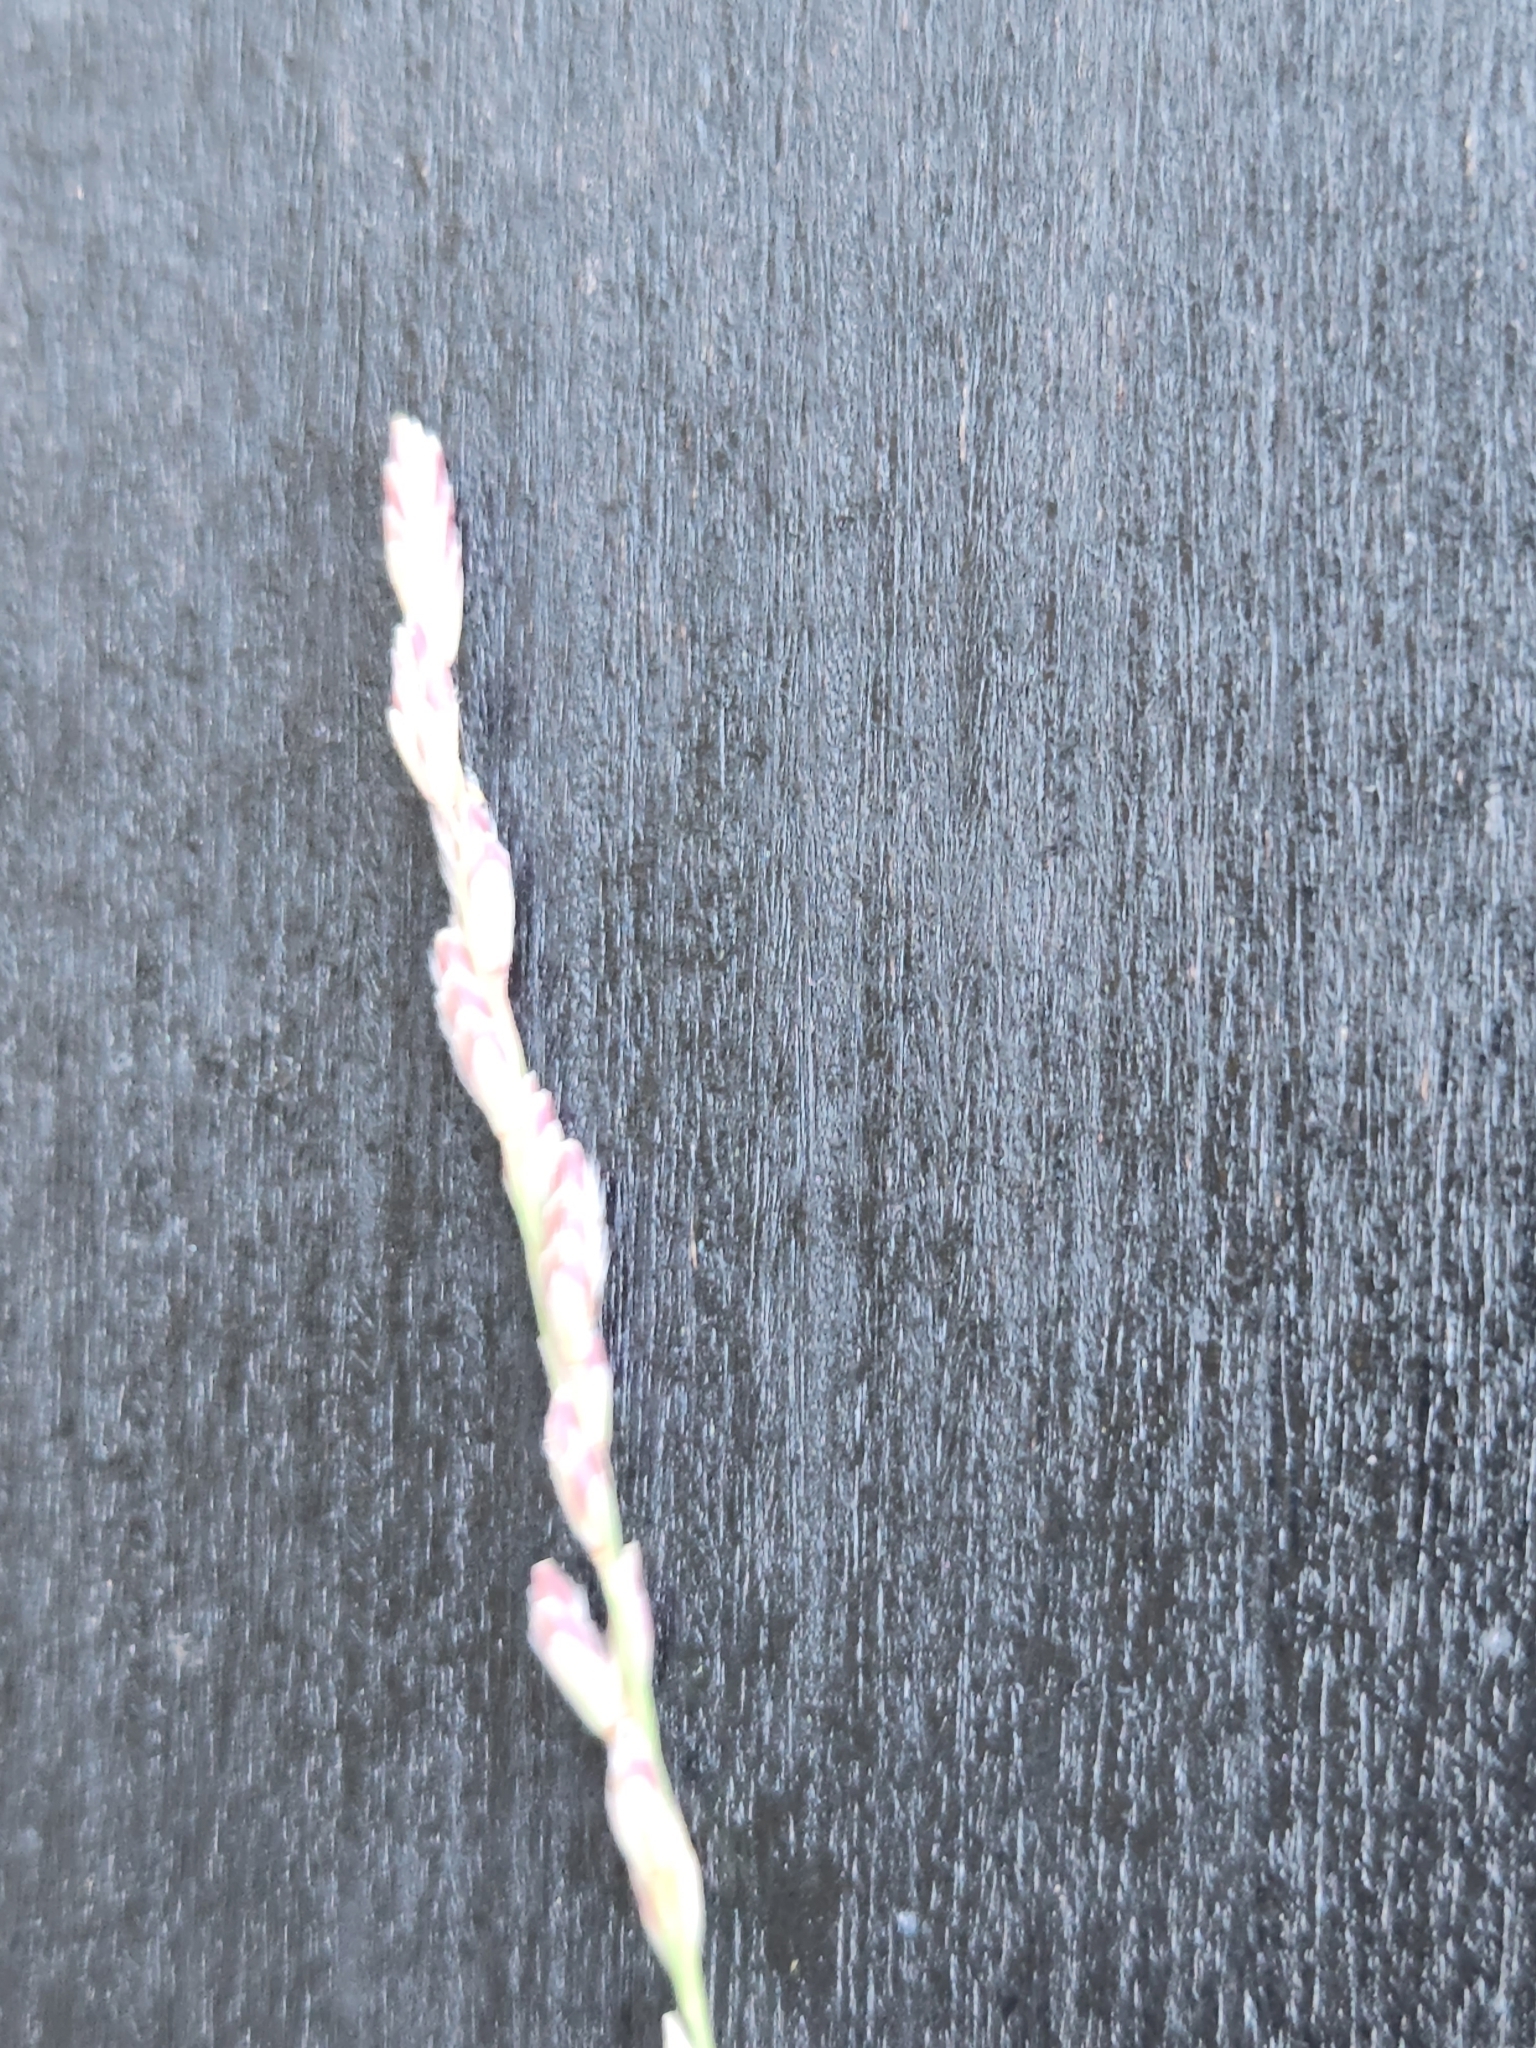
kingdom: Plantae
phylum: Tracheophyta
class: Liliopsida
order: Poales
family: Poaceae
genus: Tridentopsis
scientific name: Tridentopsis mutica
